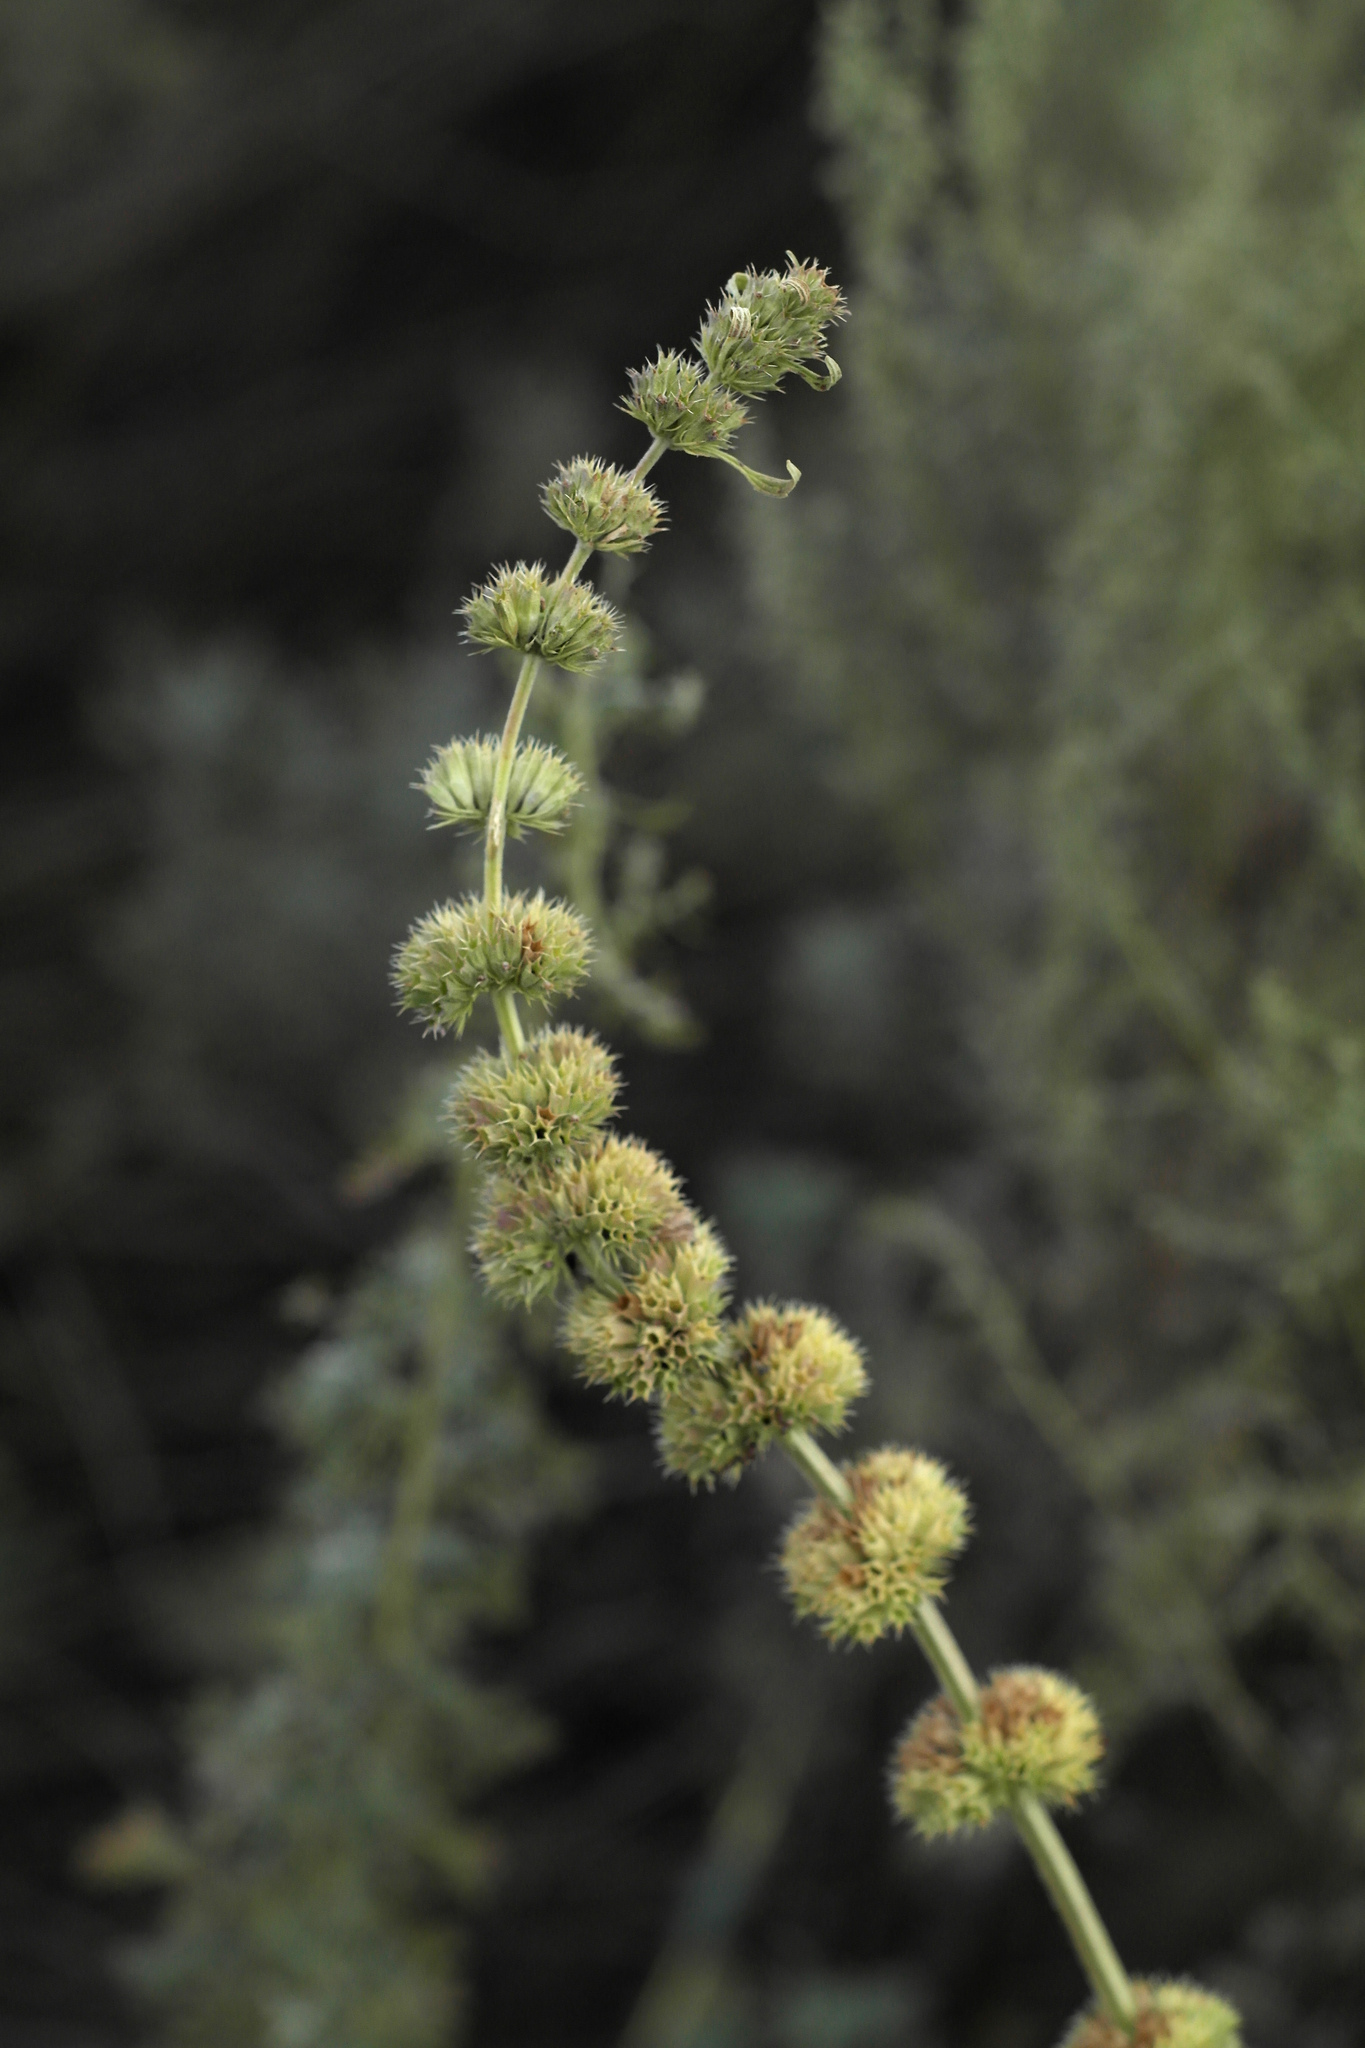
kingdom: Plantae
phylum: Tracheophyta
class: Magnoliopsida
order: Lamiales
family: Lamiaceae
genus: Chaiturus
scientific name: Chaiturus marrubiastrum
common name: Lion's tail
